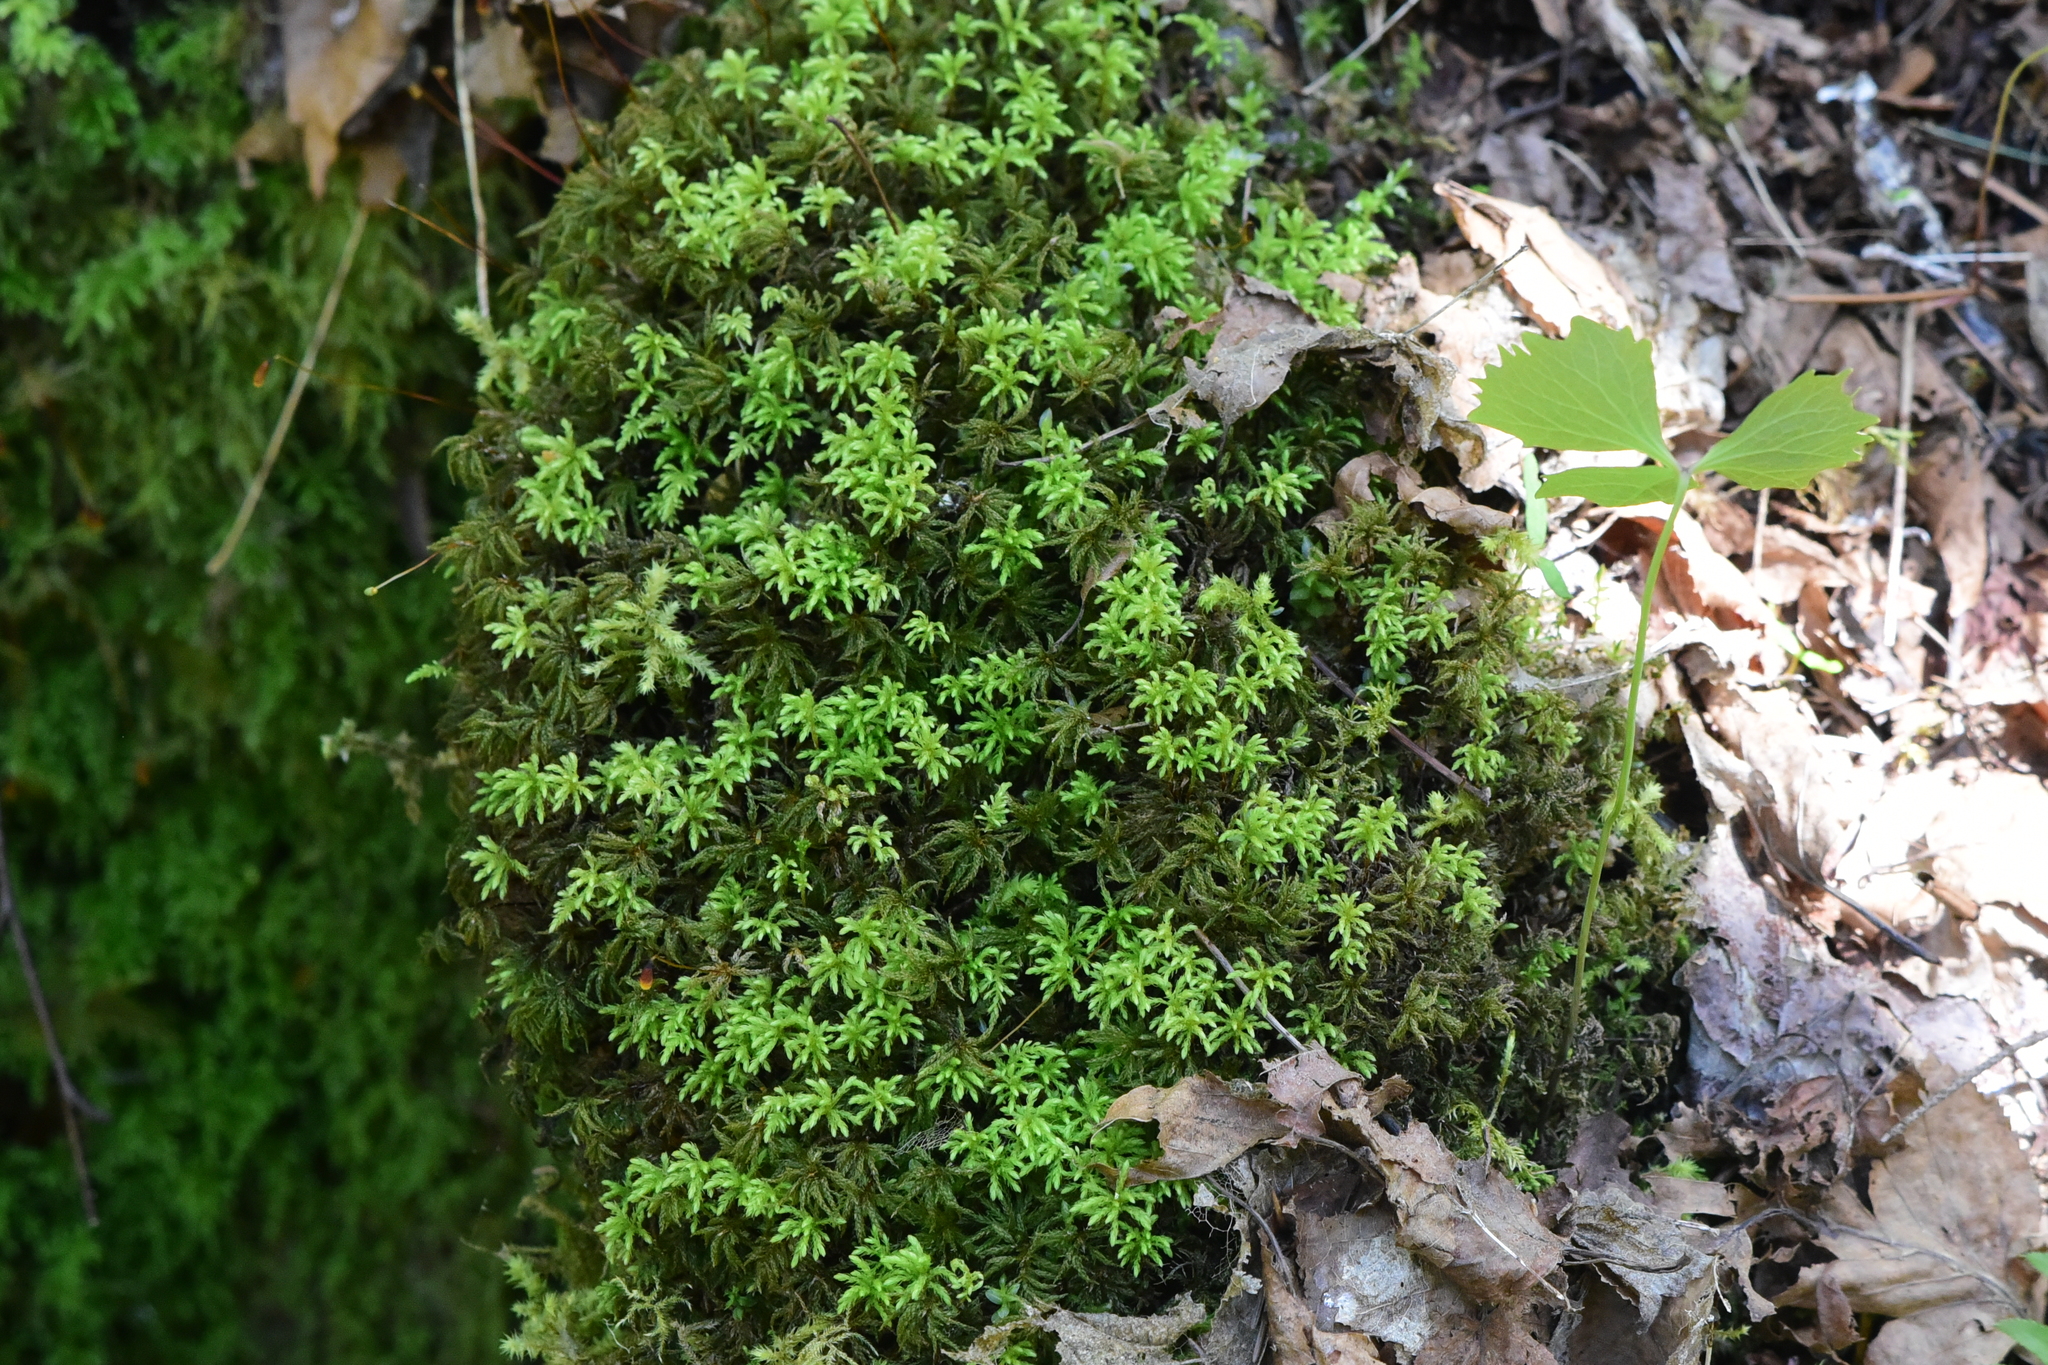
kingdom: Plantae
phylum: Bryophyta
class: Bryopsida
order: Bryales
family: Mniaceae
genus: Leucolepis
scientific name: Leucolepis acanthoneura
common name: Leucolepis umbrella moss
